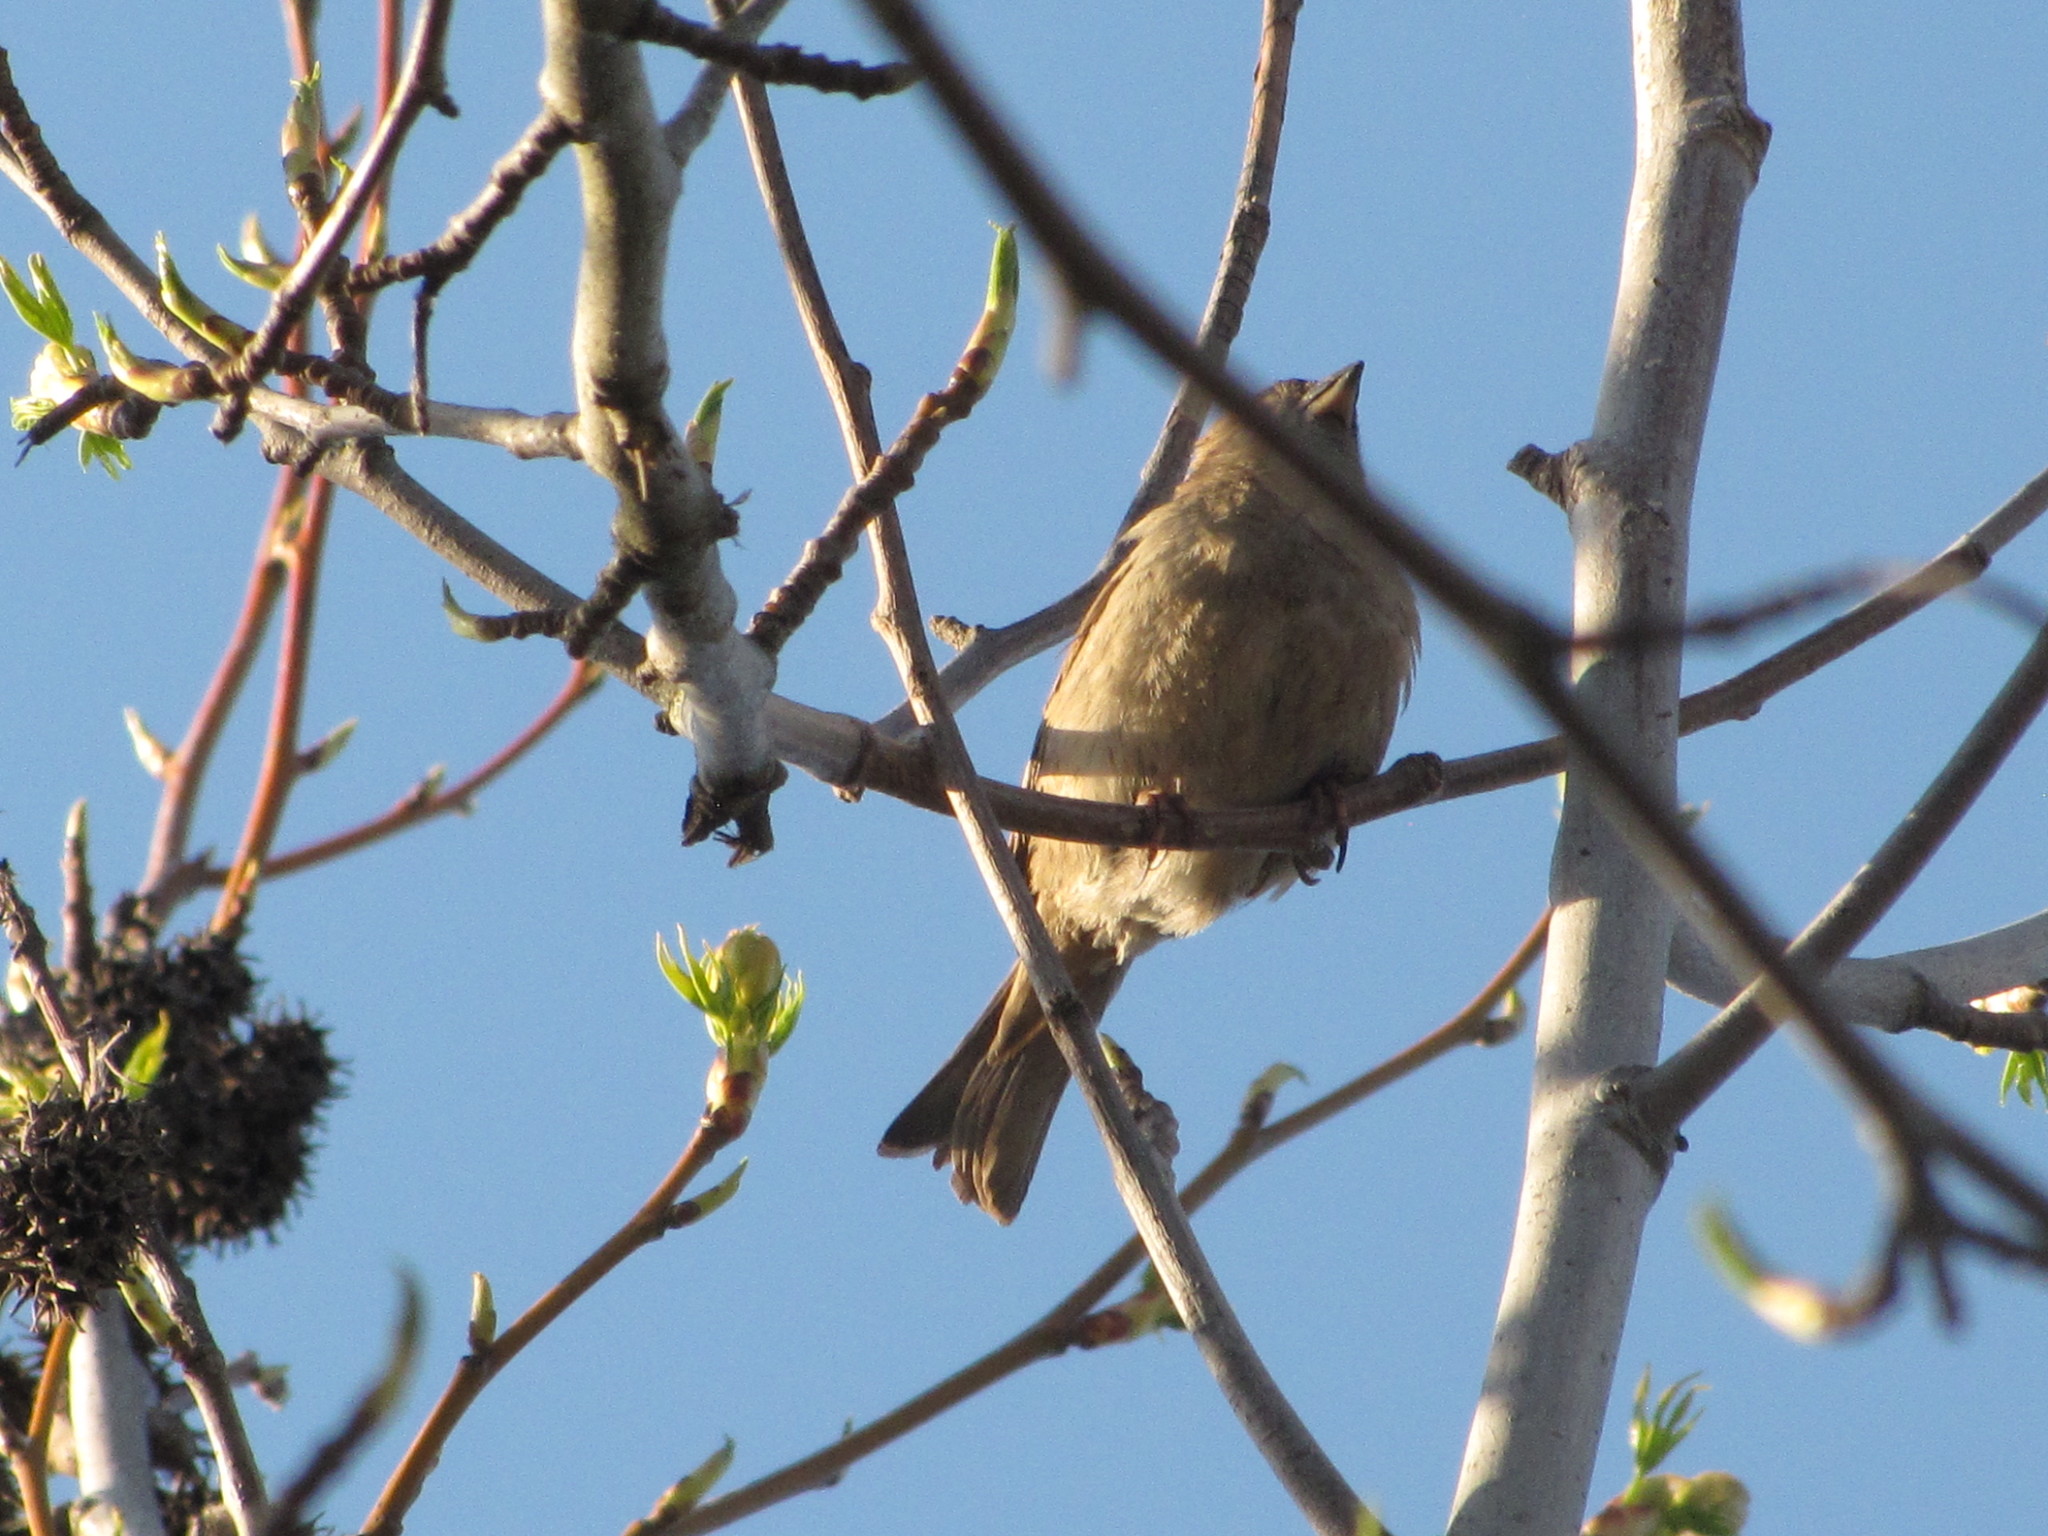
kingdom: Animalia
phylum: Chordata
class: Aves
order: Passeriformes
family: Passeridae
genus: Passer
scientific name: Passer domesticus
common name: House sparrow
